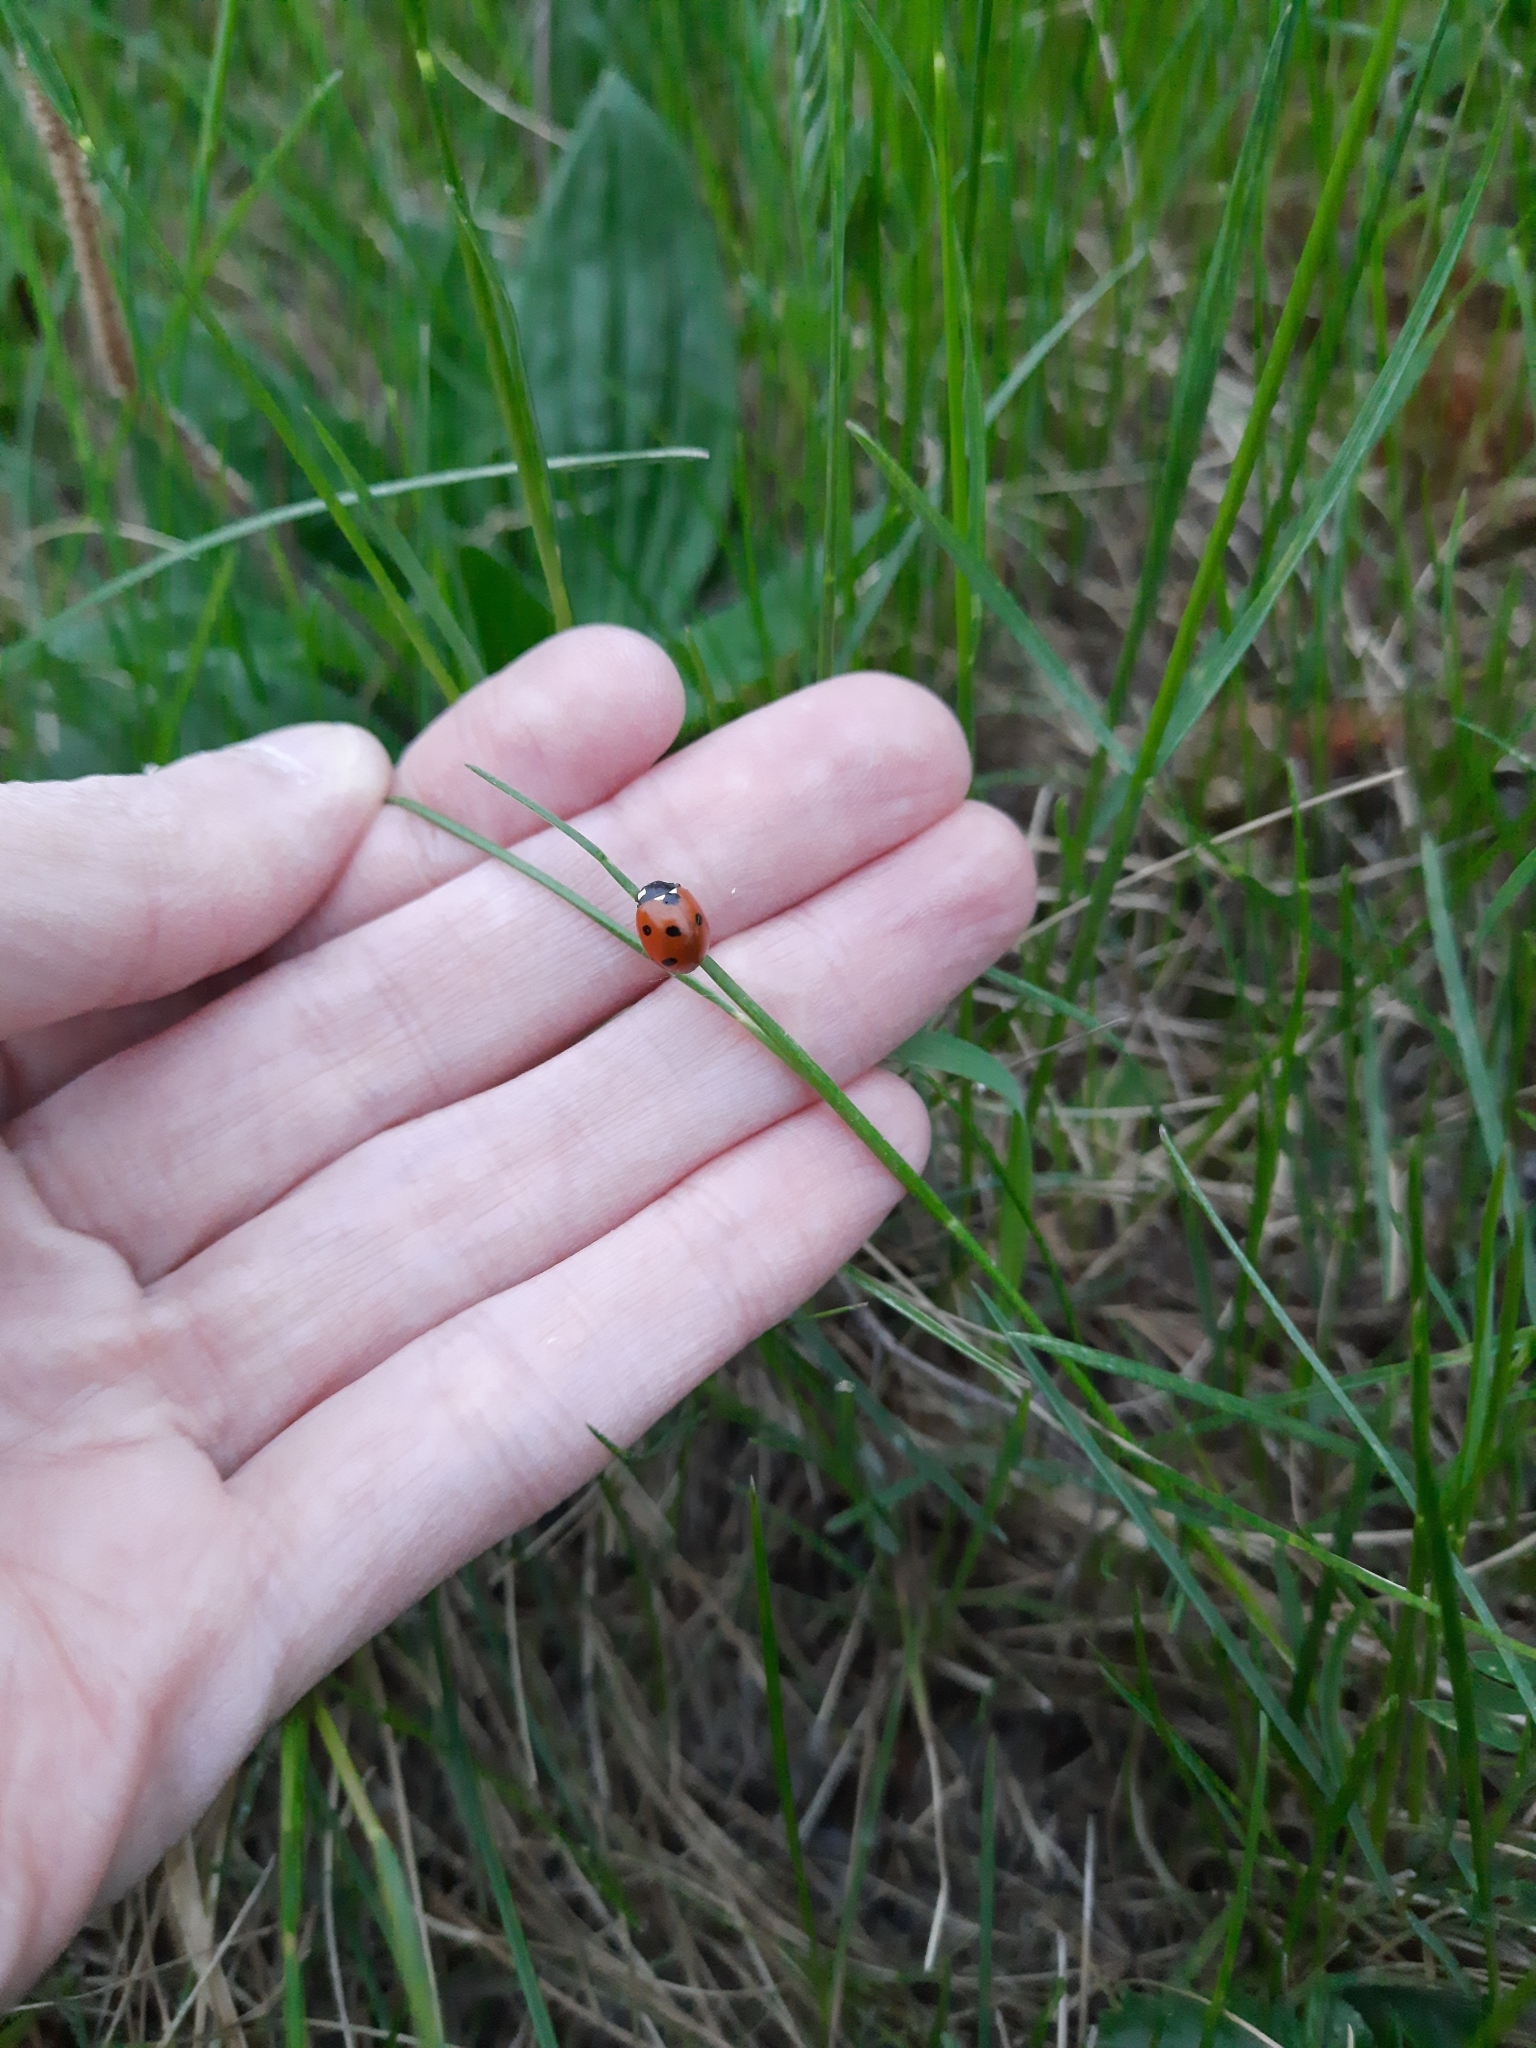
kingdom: Animalia
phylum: Arthropoda
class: Insecta
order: Coleoptera
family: Coccinellidae
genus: Coccinella
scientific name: Coccinella septempunctata
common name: Sevenspotted lady beetle
